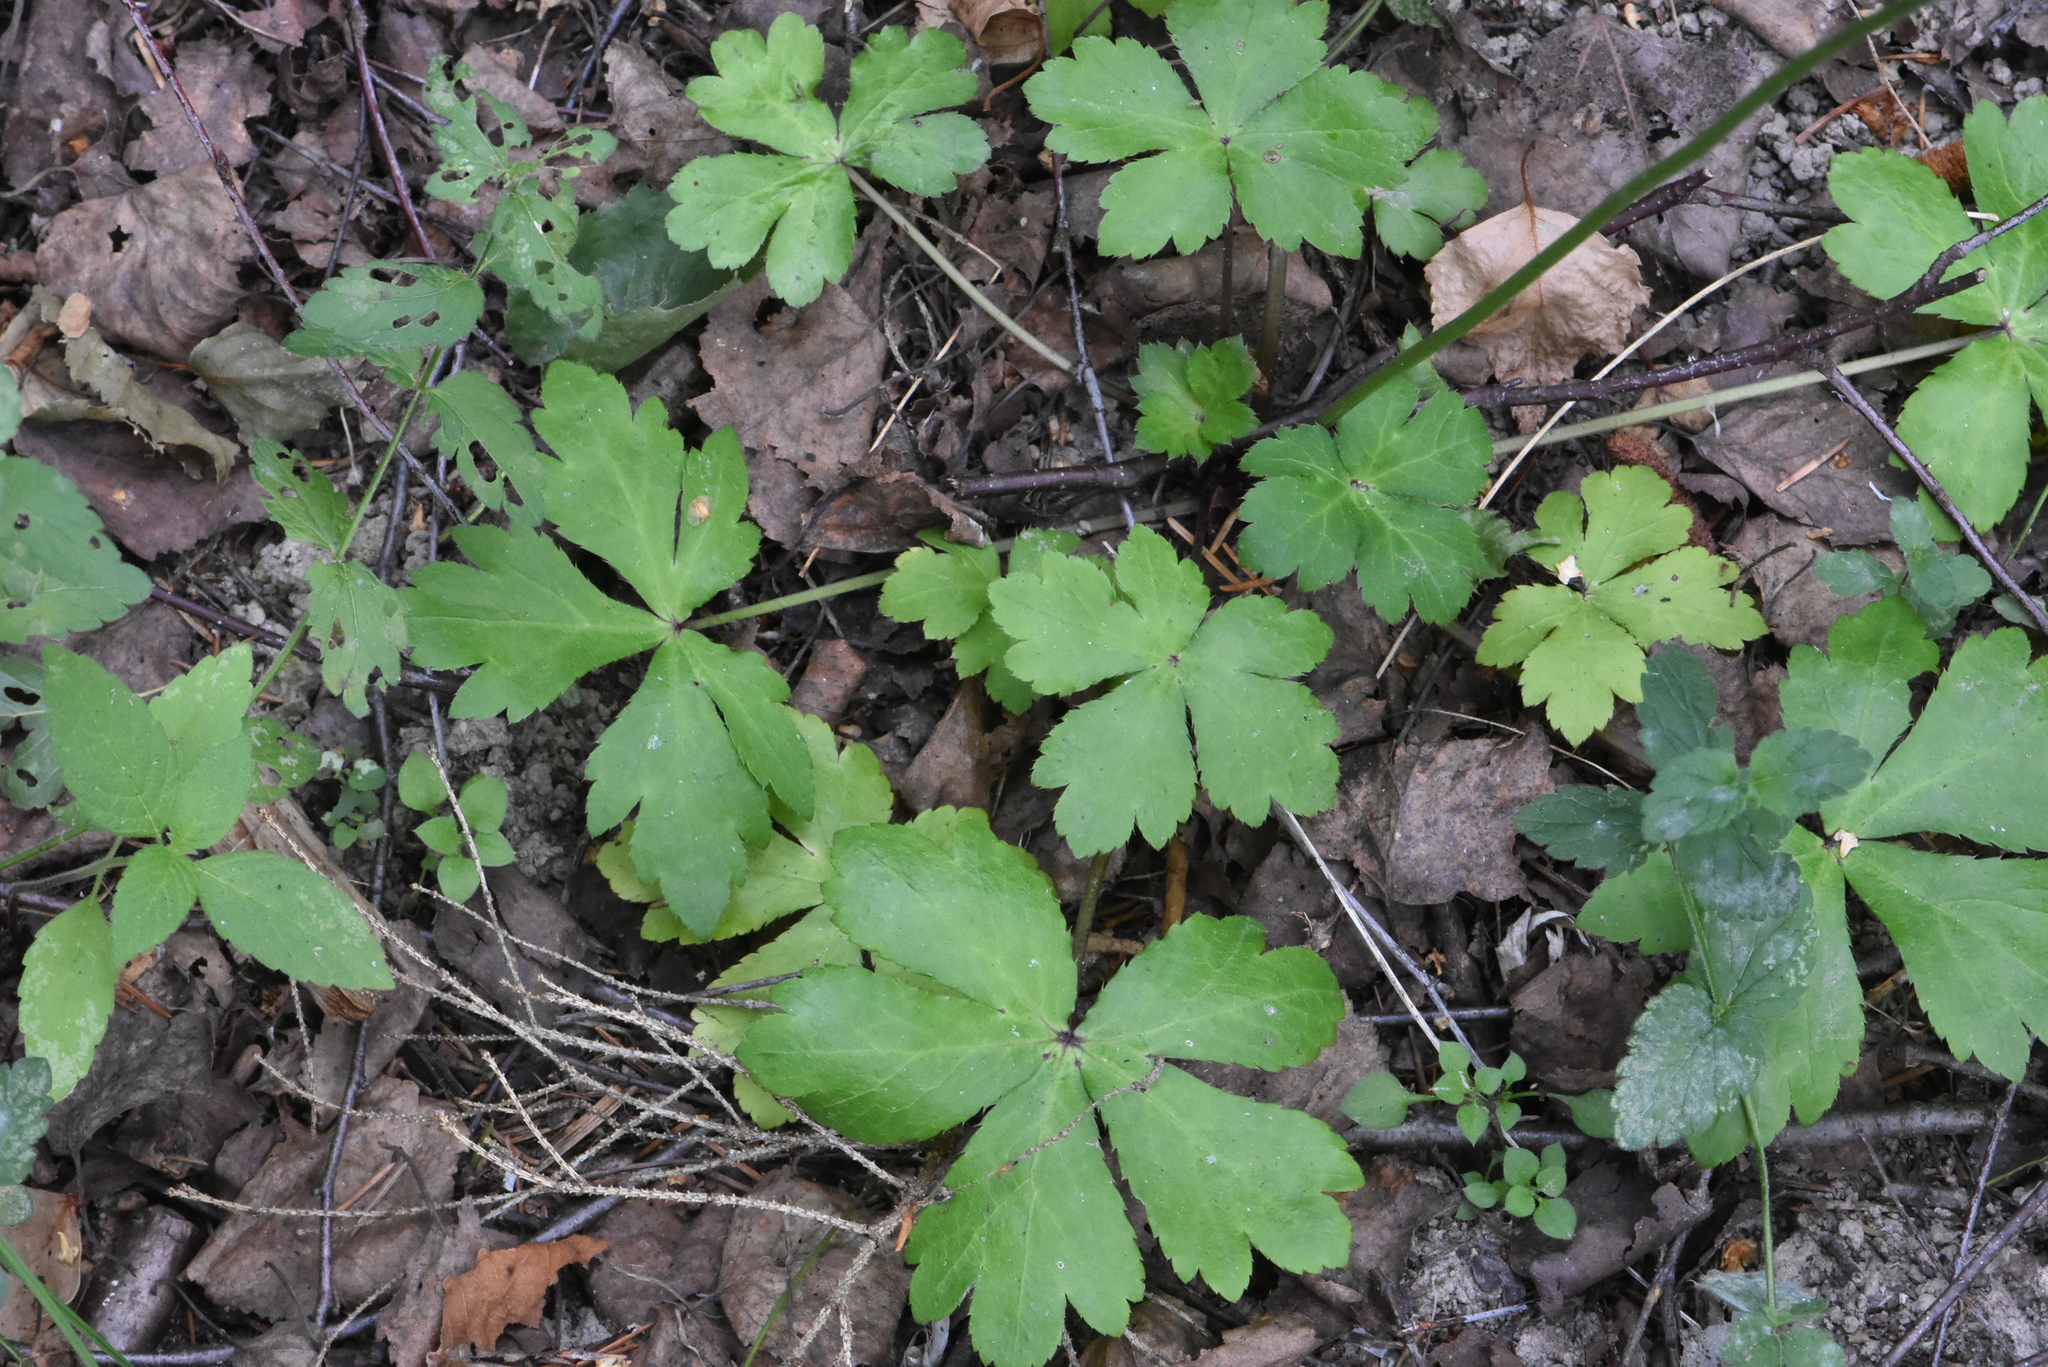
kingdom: Plantae
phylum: Tracheophyta
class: Magnoliopsida
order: Apiales
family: Apiaceae
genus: Sanicula
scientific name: Sanicula europaea
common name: Sanicle
